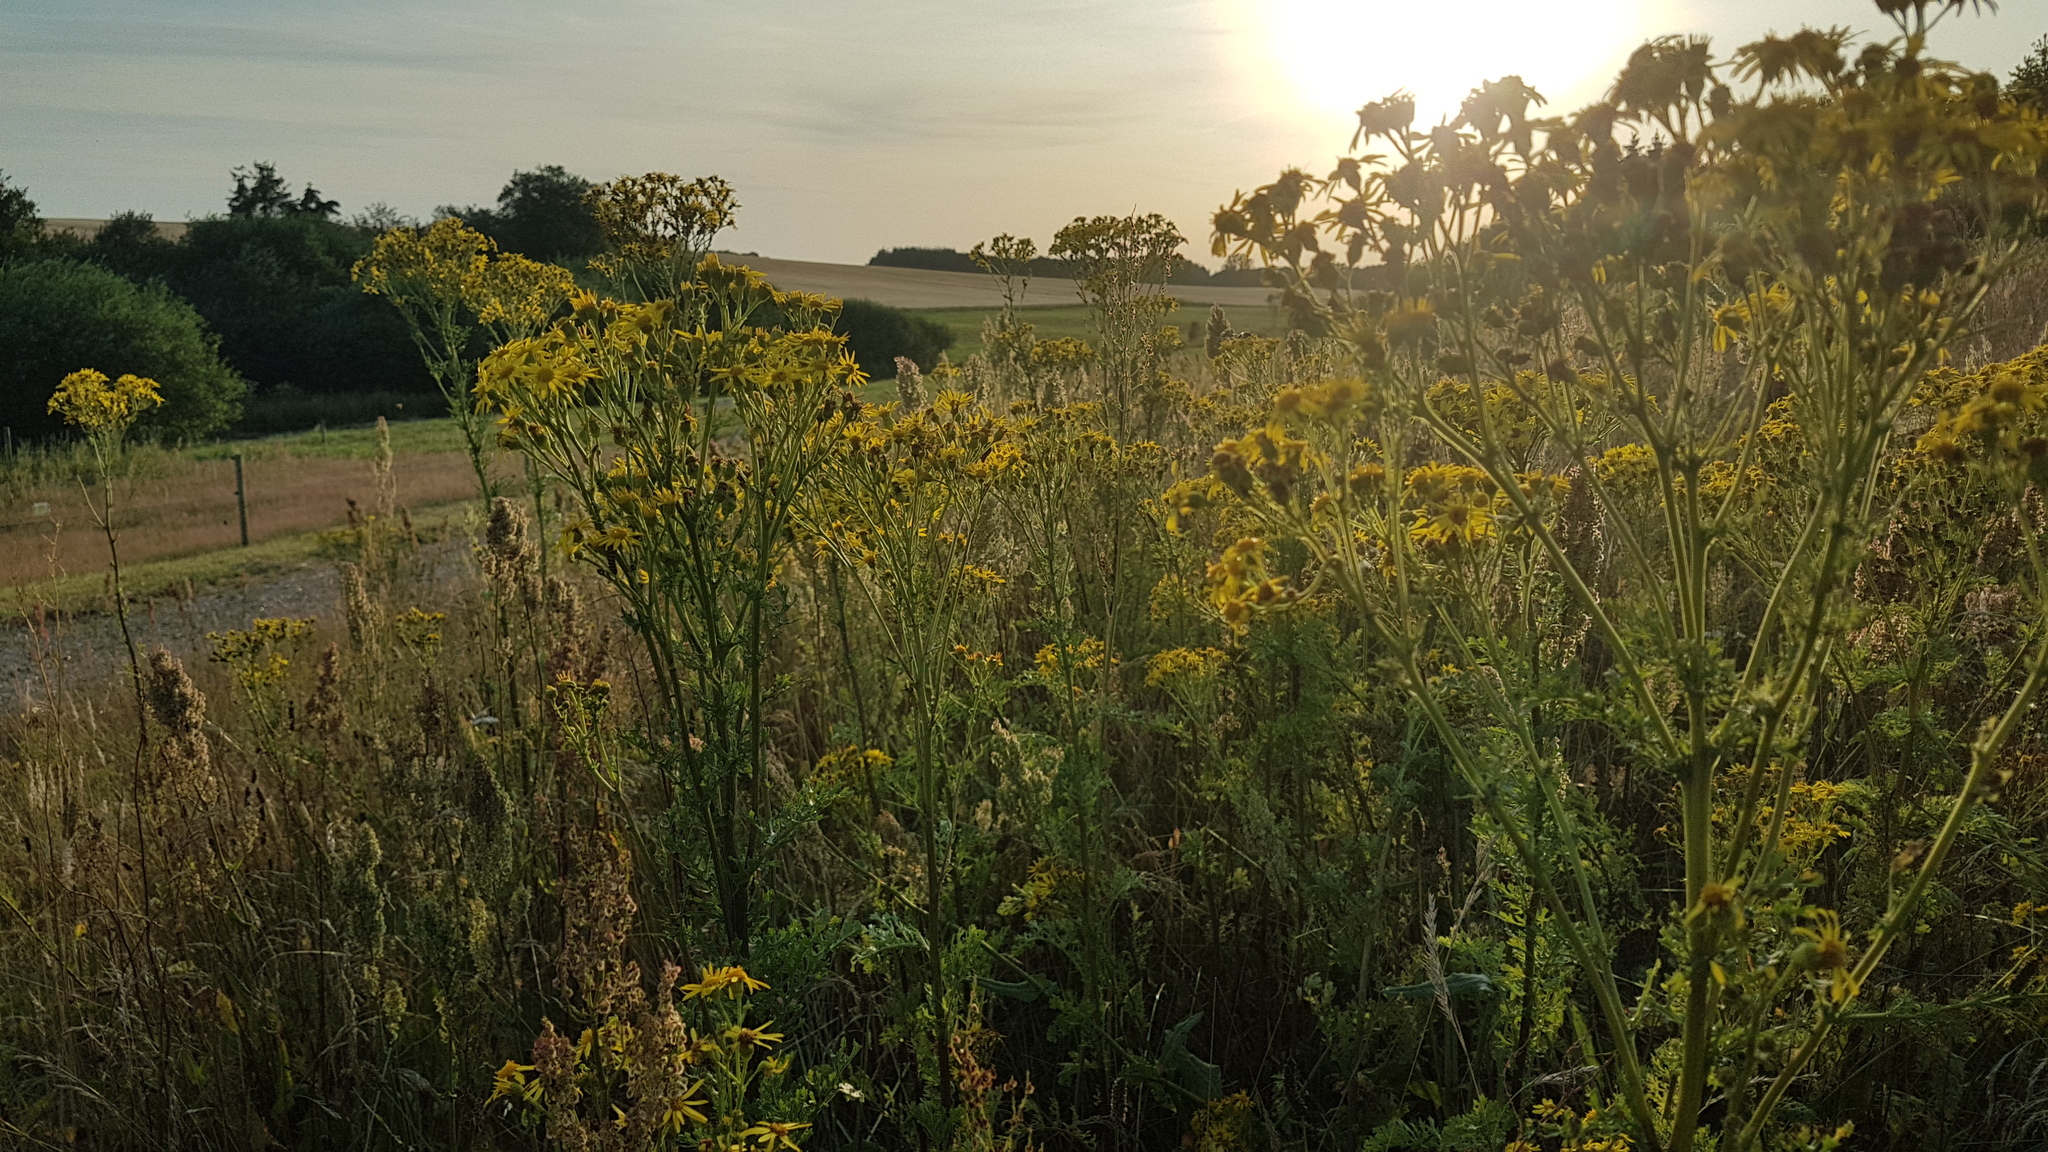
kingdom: Plantae
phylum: Tracheophyta
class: Magnoliopsida
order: Asterales
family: Asteraceae
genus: Jacobaea
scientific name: Jacobaea vulgaris
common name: Stinking willie
